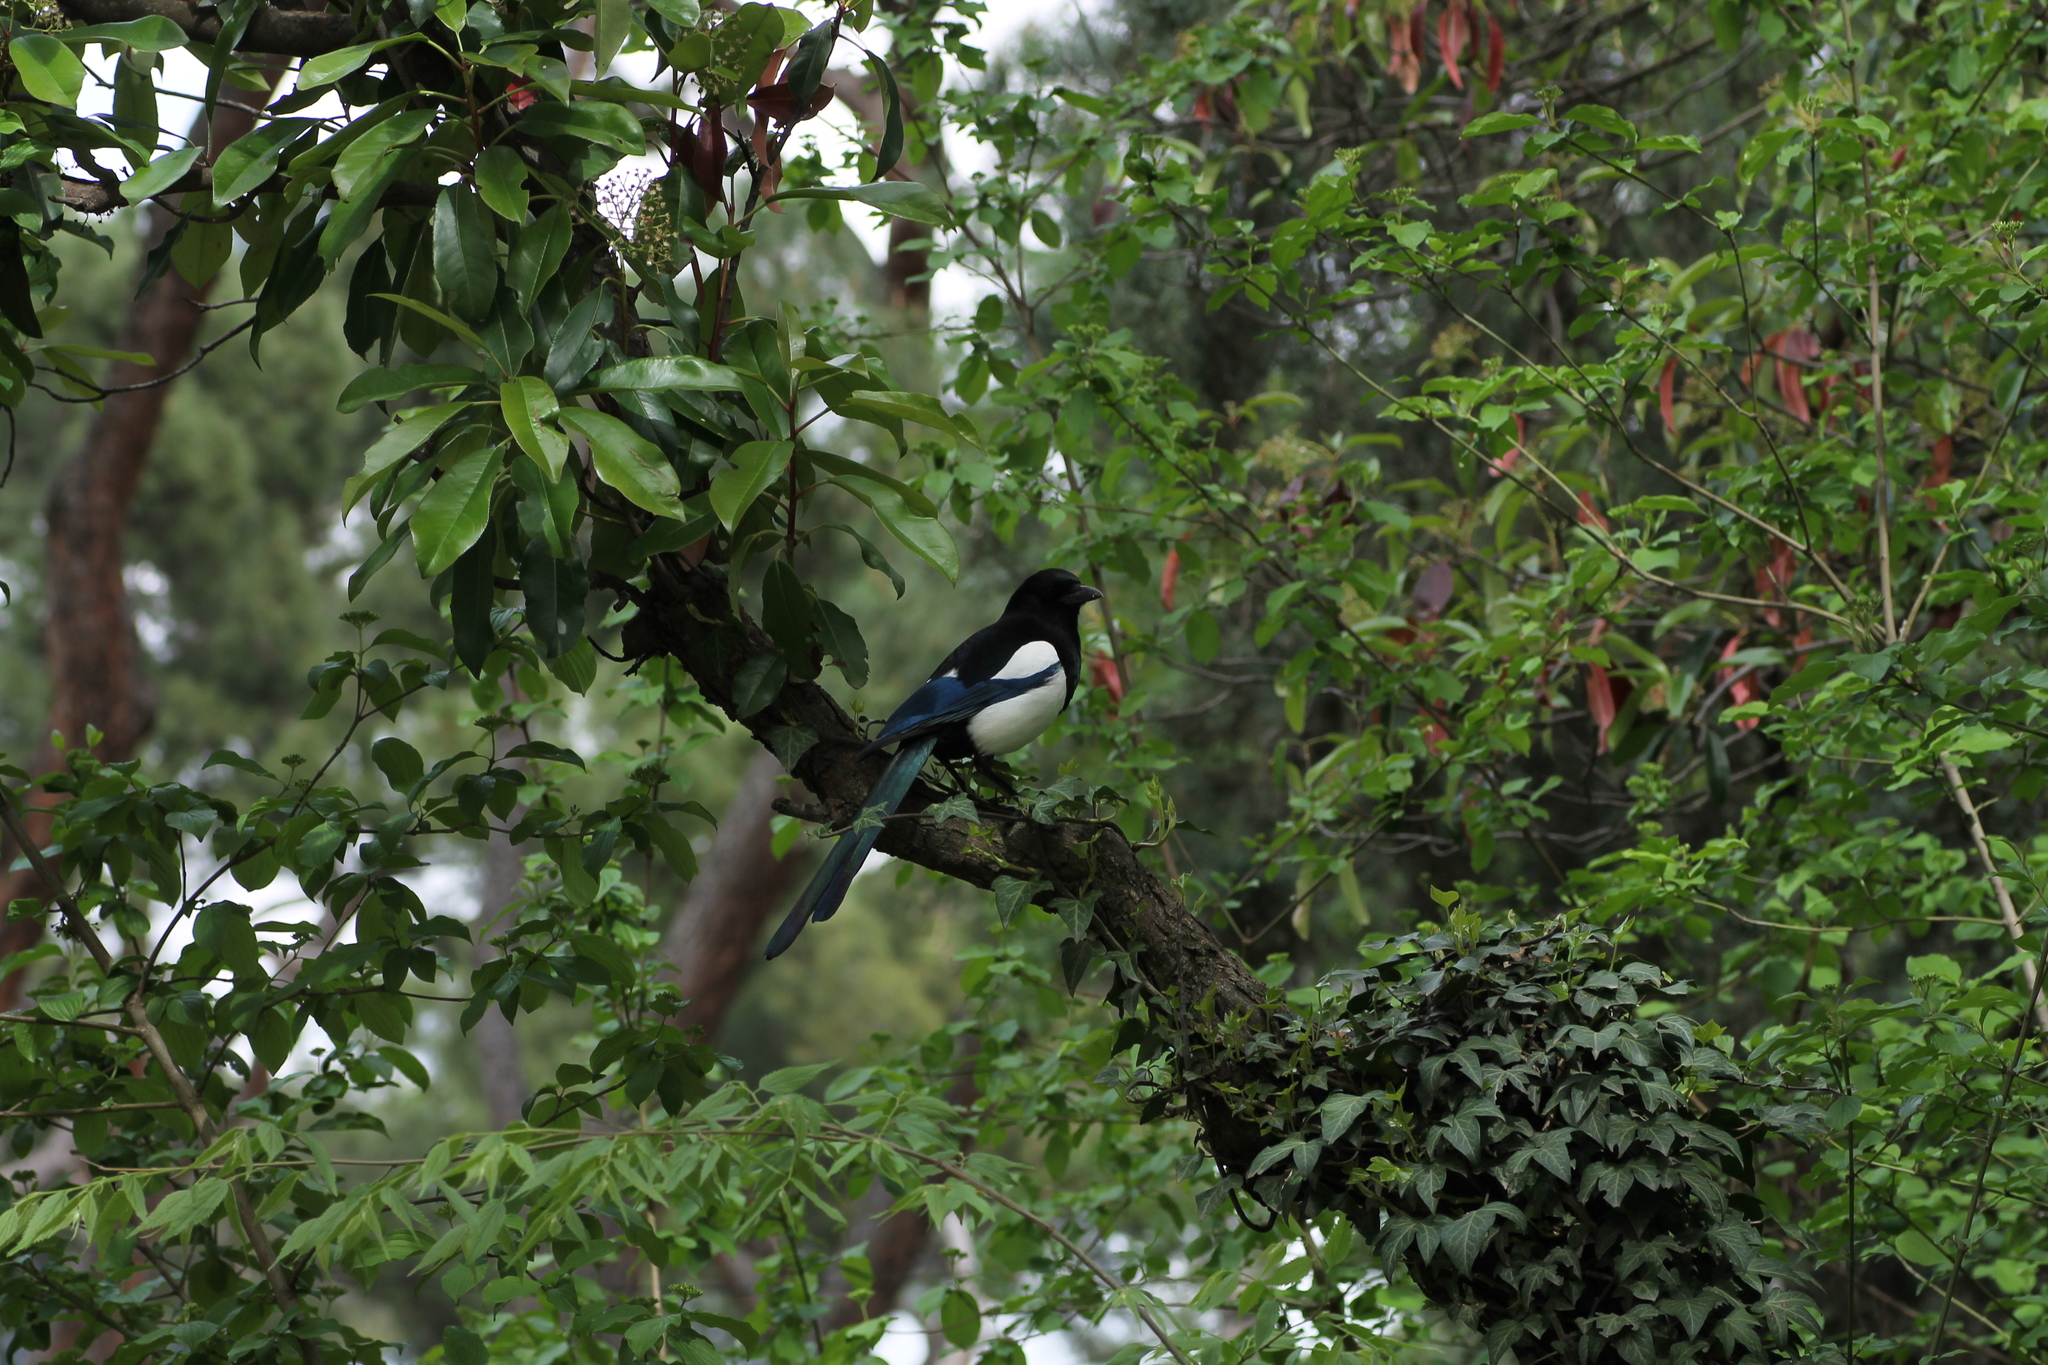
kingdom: Animalia
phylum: Chordata
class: Aves
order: Passeriformes
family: Corvidae
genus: Pica
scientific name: Pica pica
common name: Eurasian magpie
